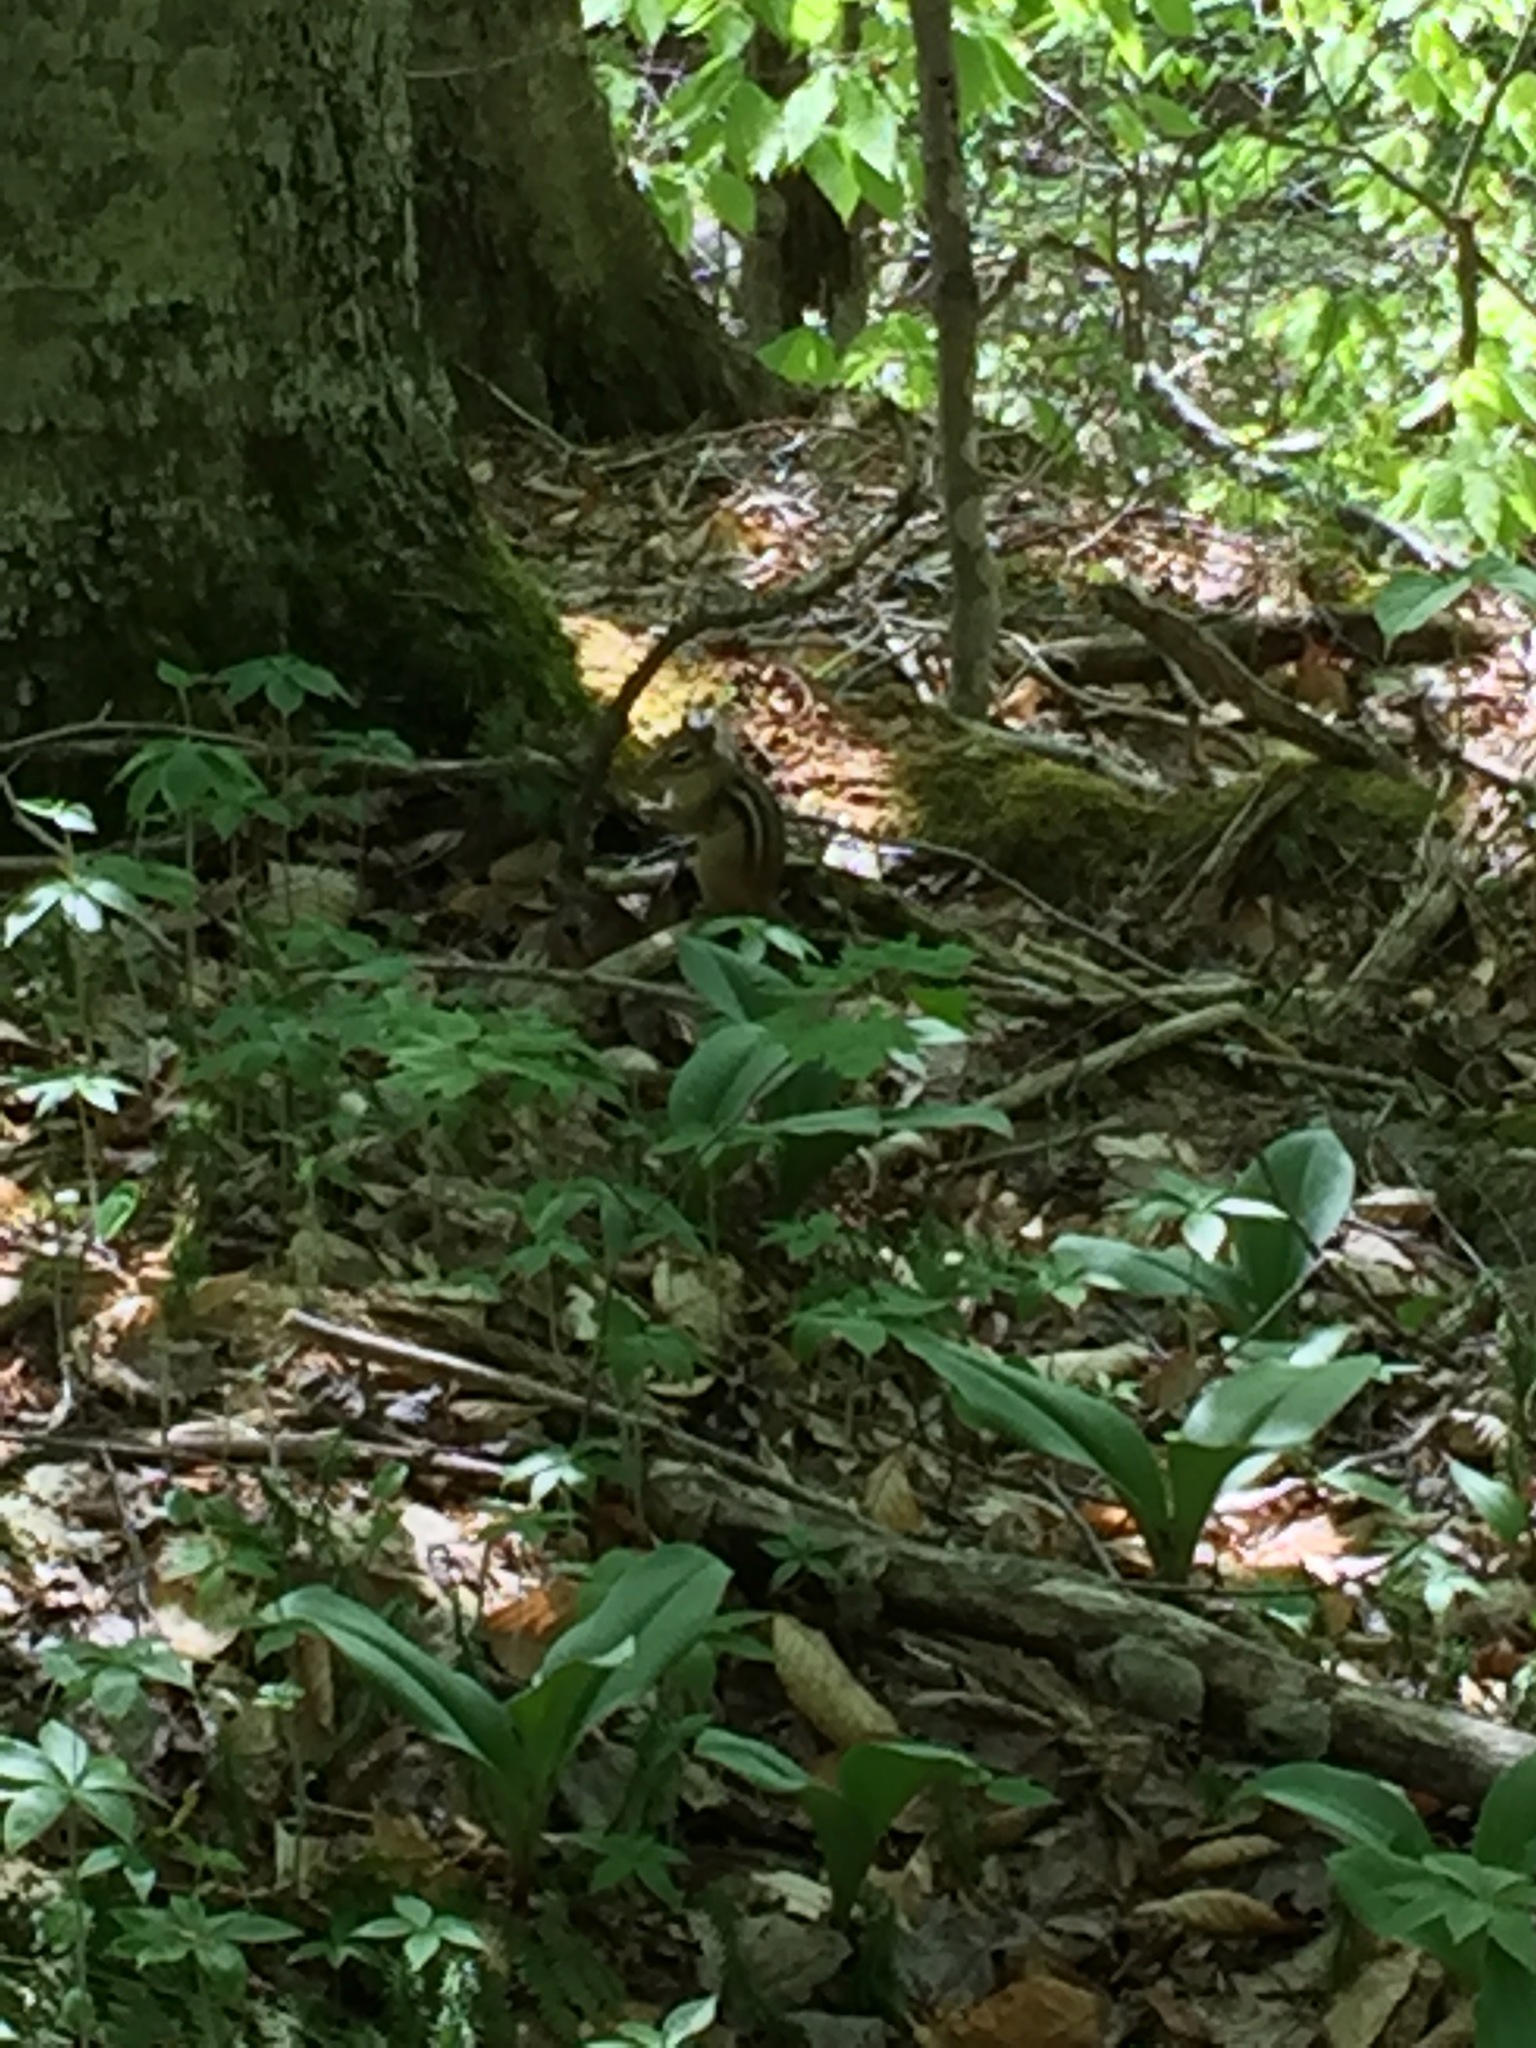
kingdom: Animalia
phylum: Chordata
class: Mammalia
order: Rodentia
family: Sciuridae
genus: Tamias
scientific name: Tamias striatus
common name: Eastern chipmunk
